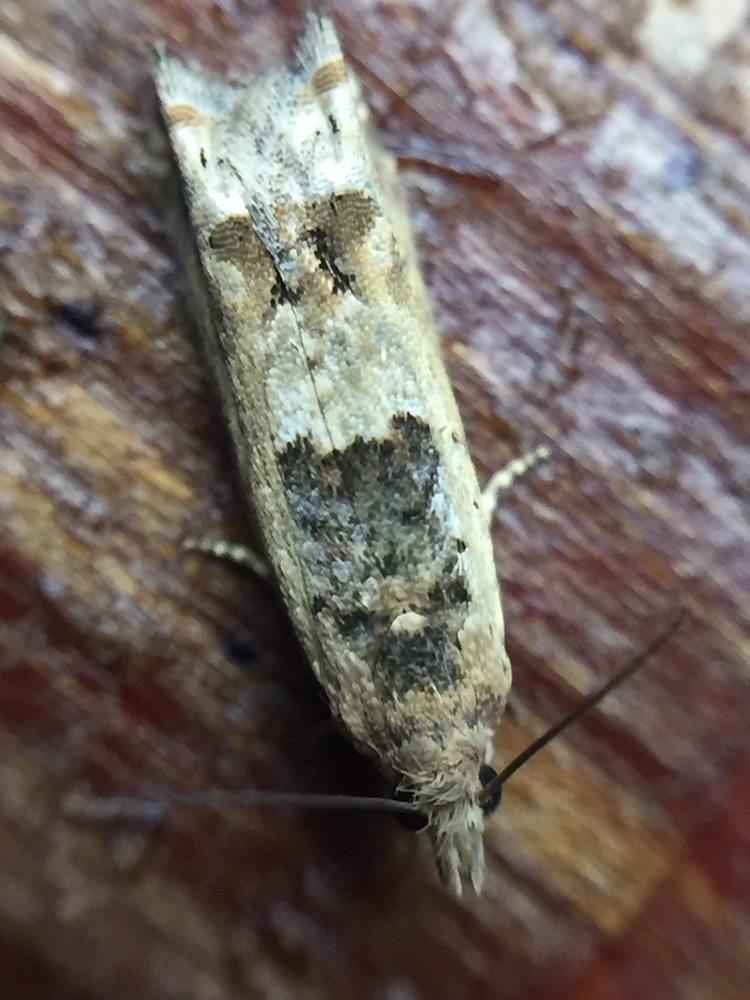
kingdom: Animalia
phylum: Arthropoda
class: Insecta
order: Lepidoptera
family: Tortricidae
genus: Crocidosema
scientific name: Crocidosema plebejana
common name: Southern bell
